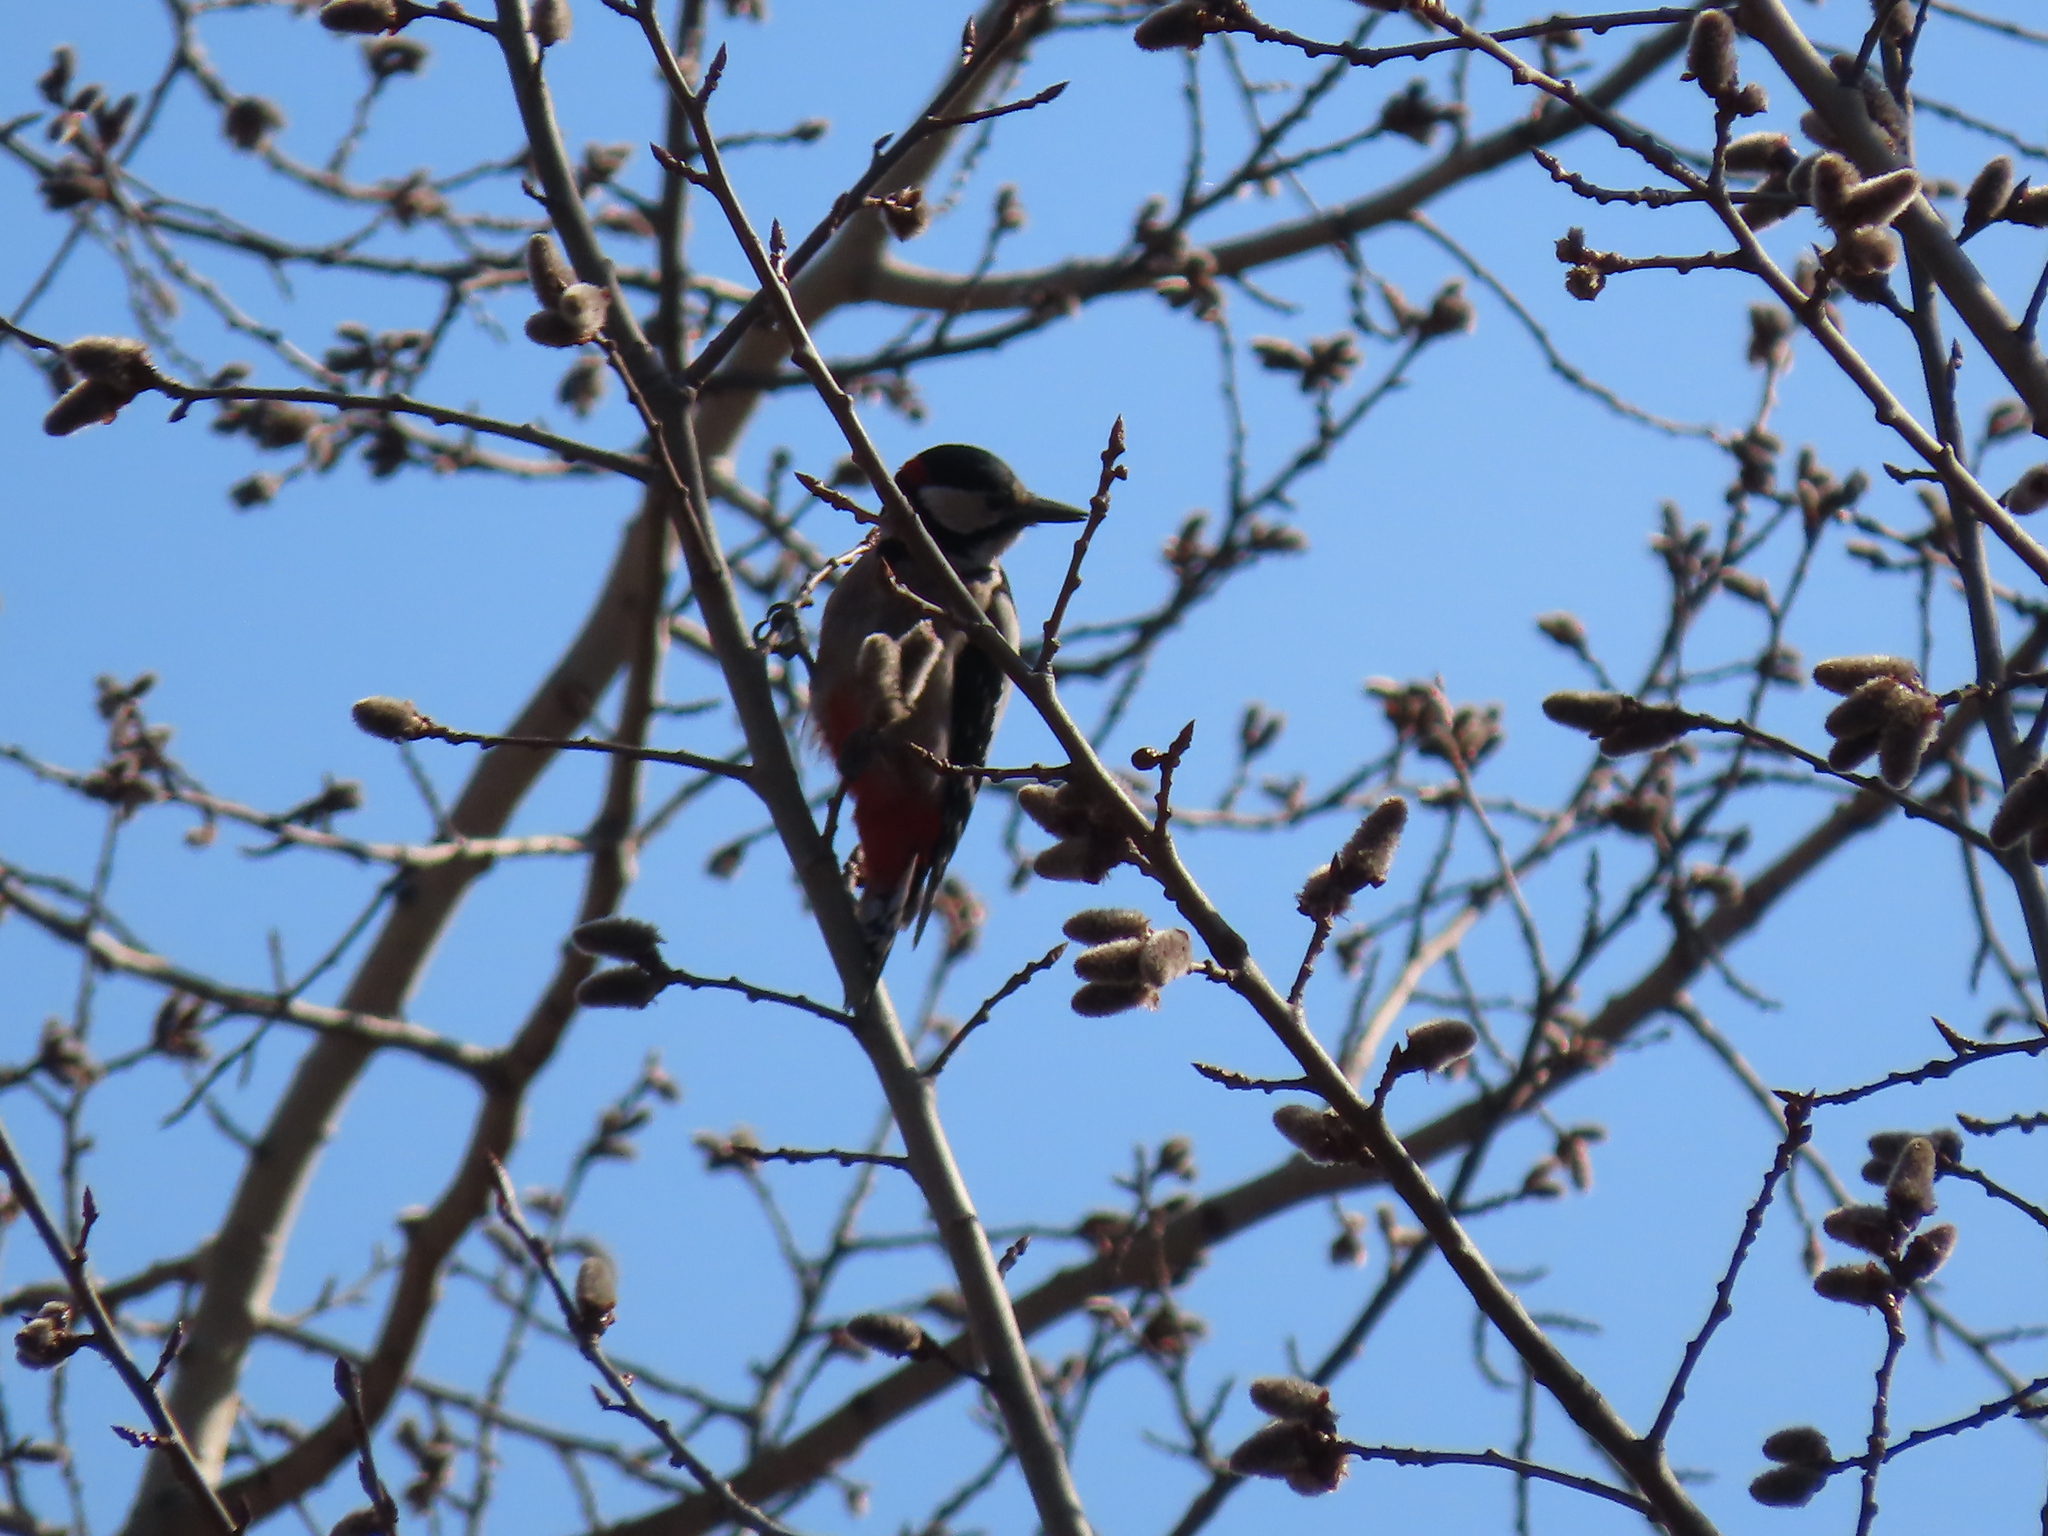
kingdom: Animalia
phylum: Chordata
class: Aves
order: Piciformes
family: Picidae
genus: Dendrocopos
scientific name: Dendrocopos major
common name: Great spotted woodpecker
